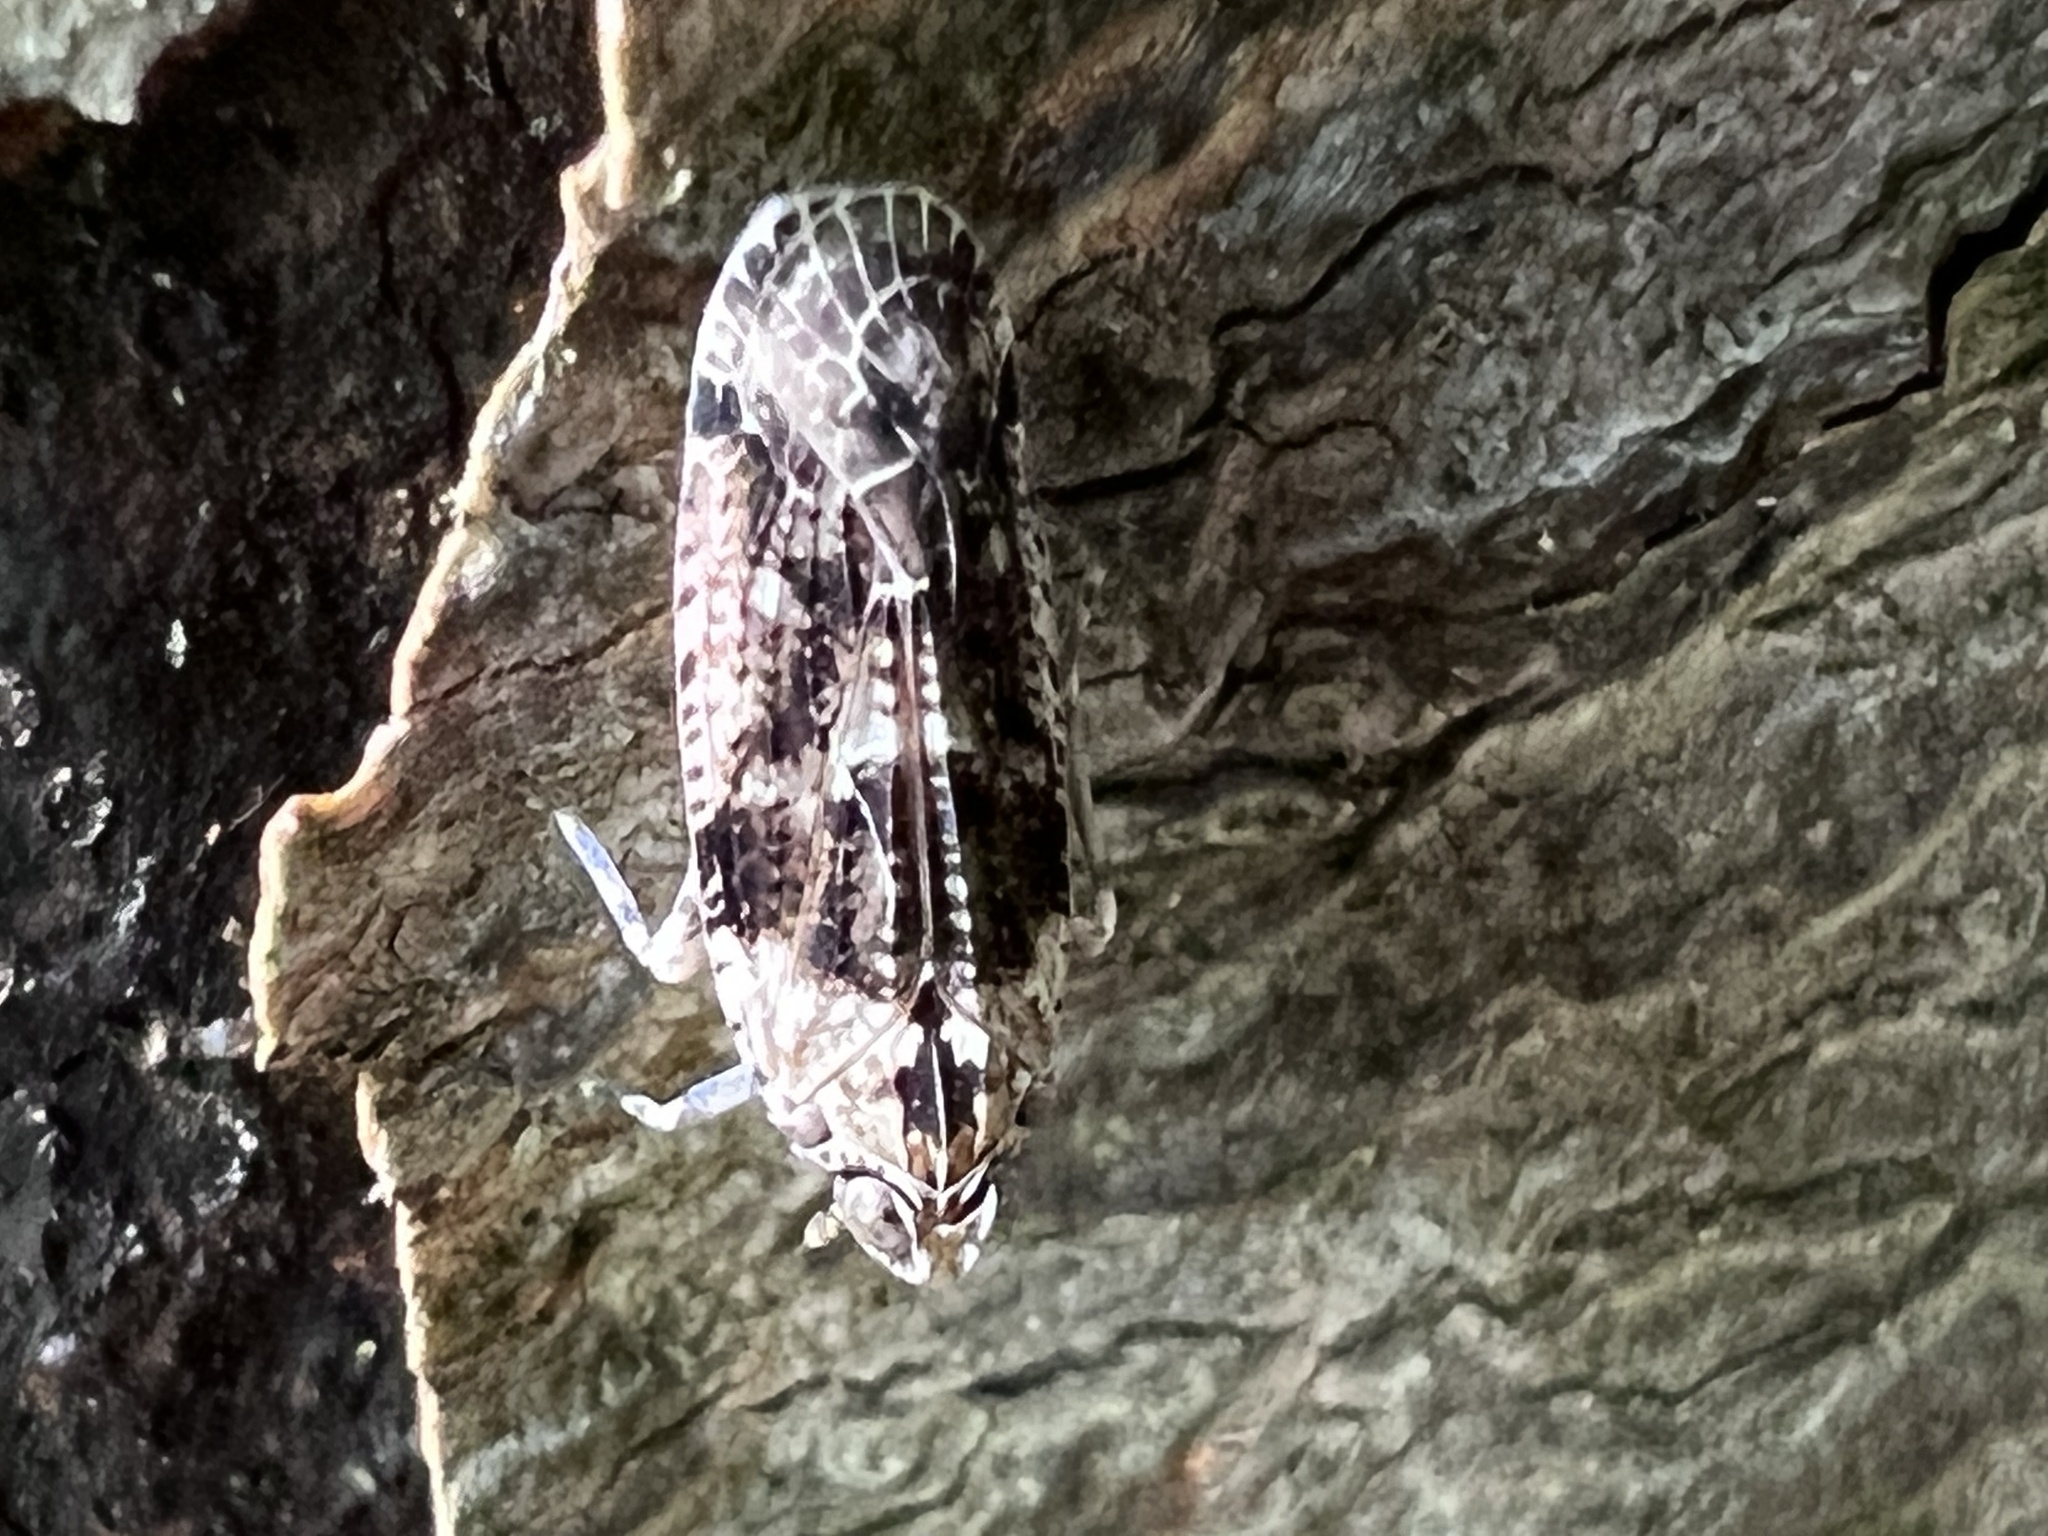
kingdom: Animalia
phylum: Arthropoda
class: Insecta
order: Hemiptera
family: Achilidae
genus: Catonia
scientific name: Catonia nava
